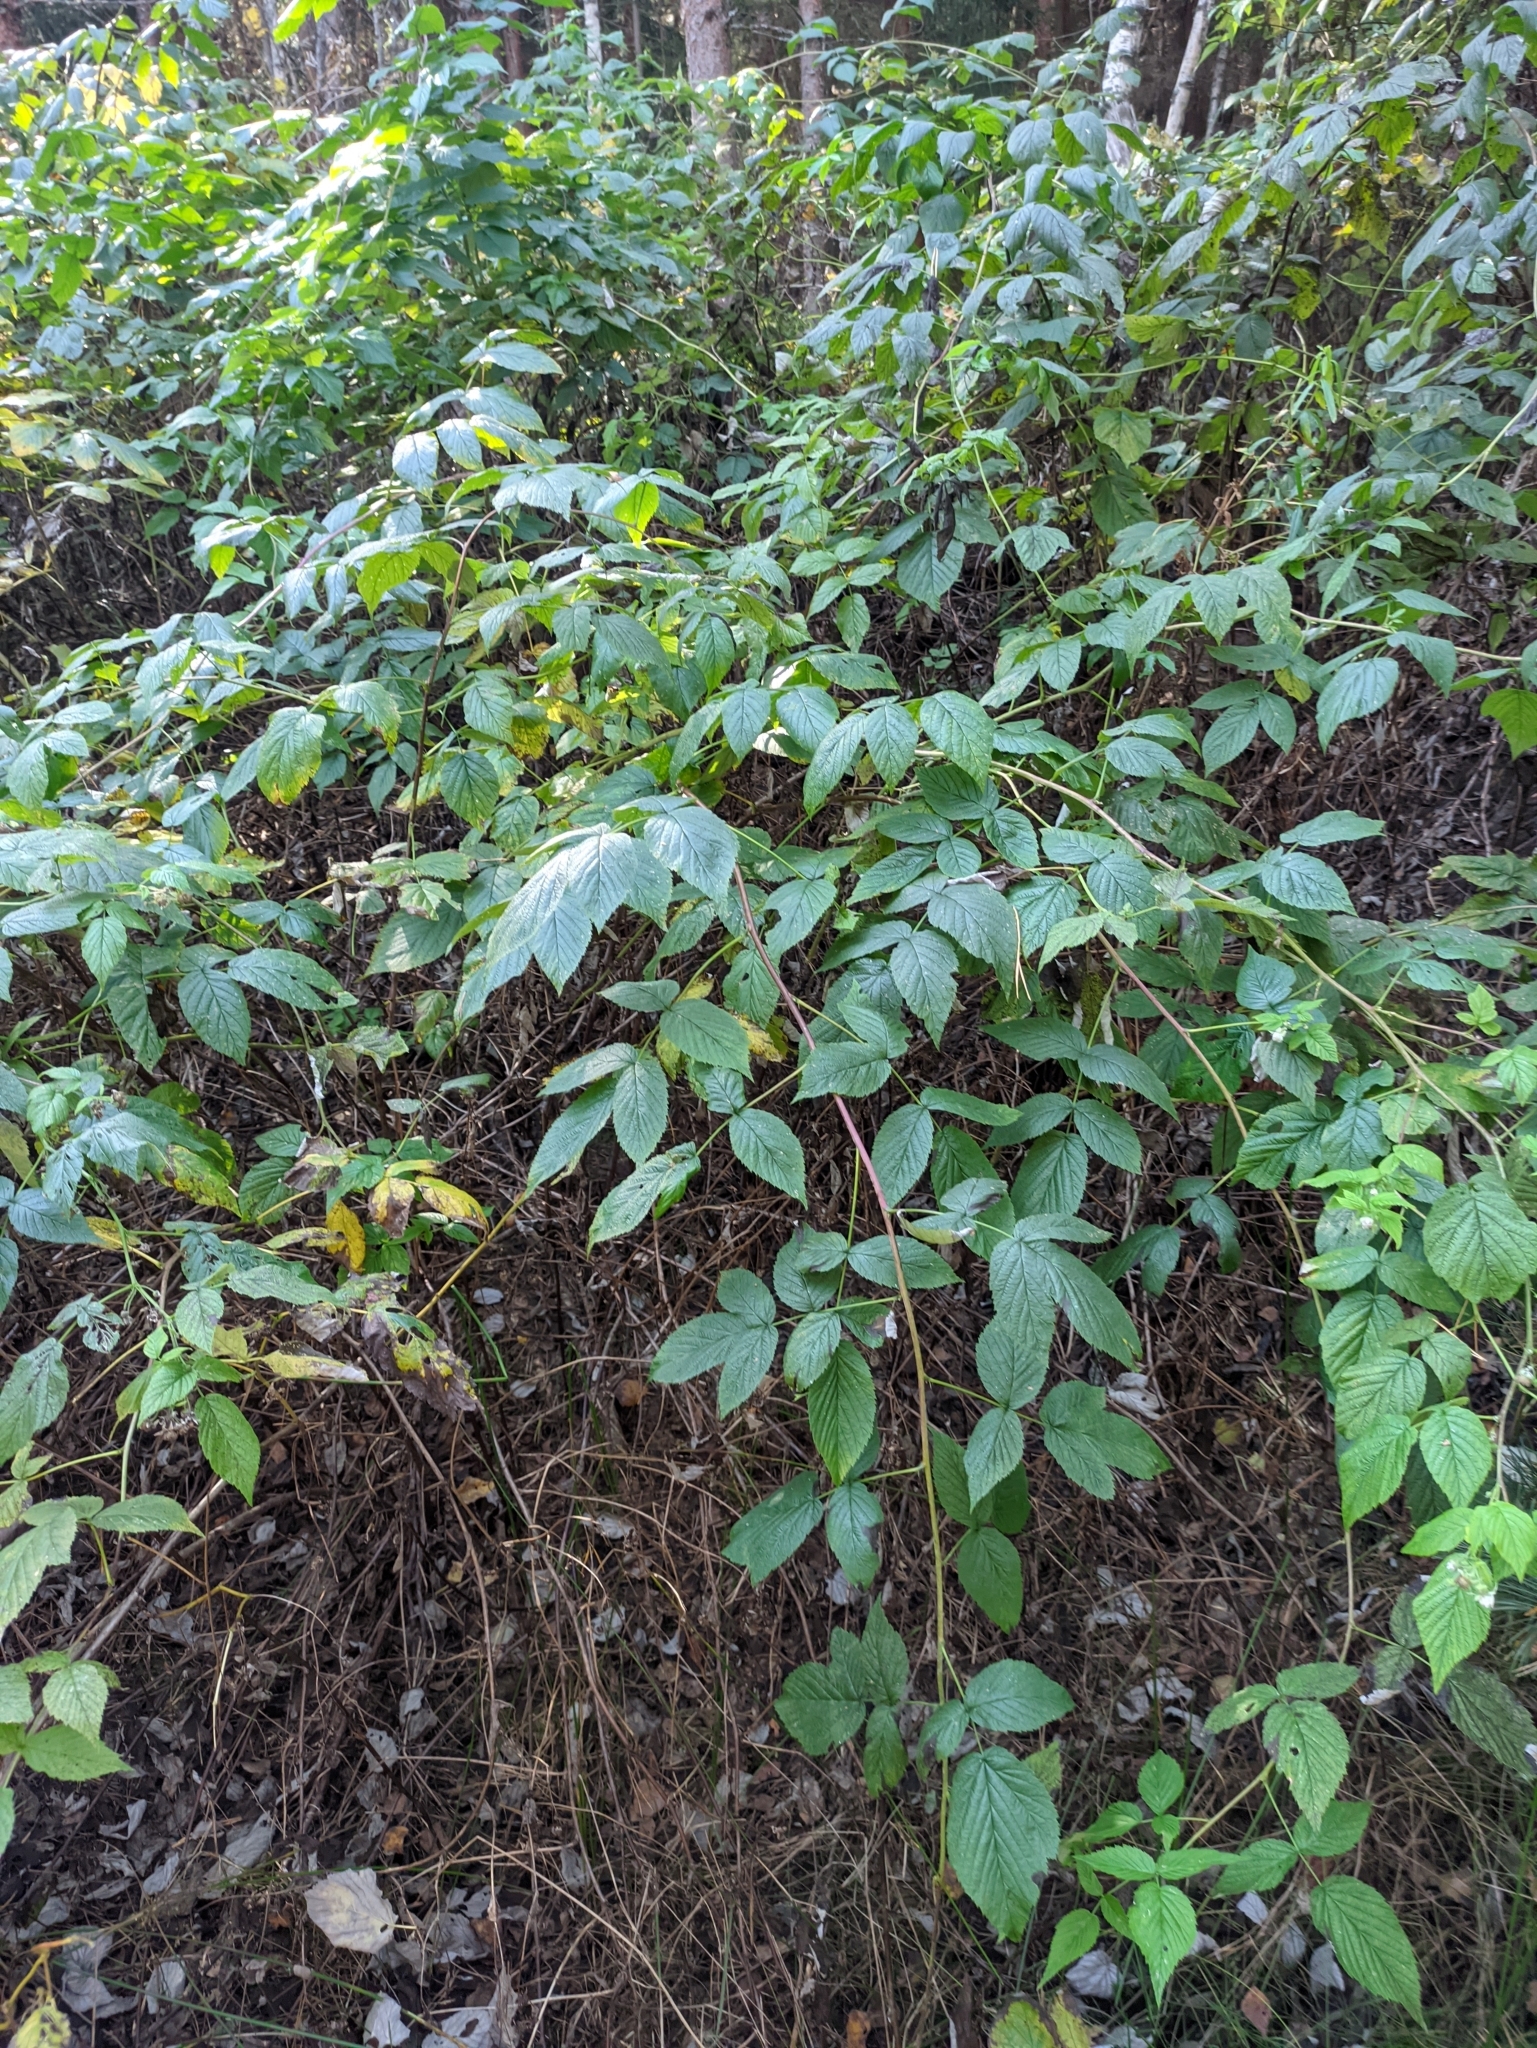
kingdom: Plantae
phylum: Tracheophyta
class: Magnoliopsida
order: Rosales
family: Rosaceae
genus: Rubus
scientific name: Rubus idaeus
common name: Raspberry
